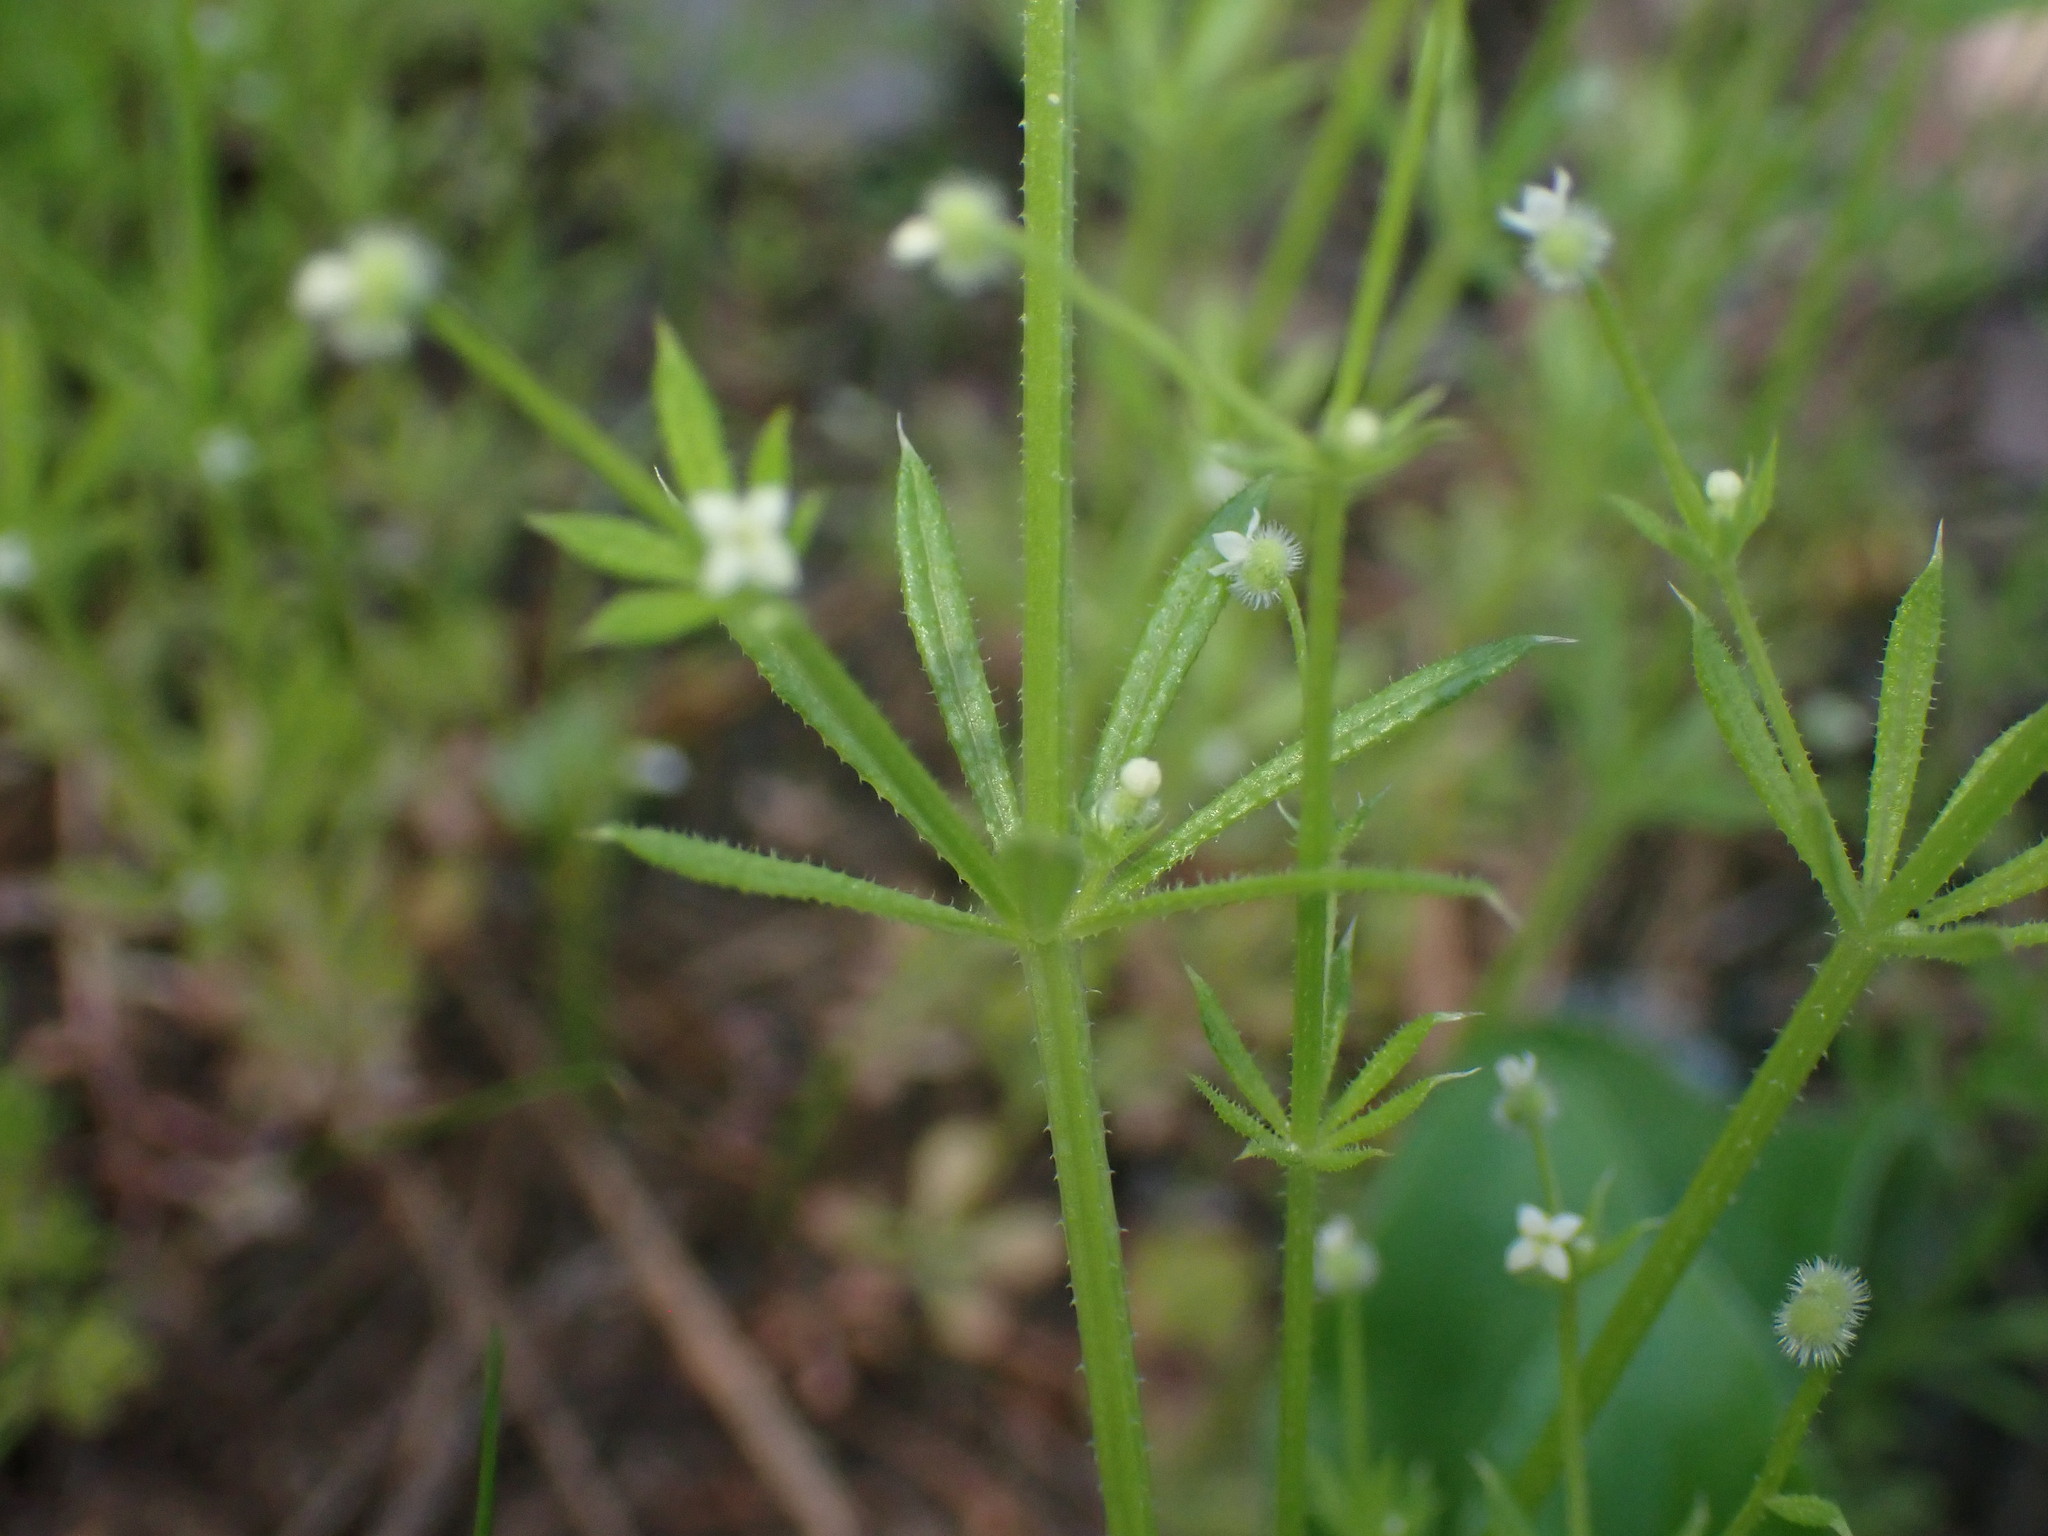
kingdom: Plantae
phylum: Tracheophyta
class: Magnoliopsida
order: Gentianales
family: Rubiaceae
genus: Galium
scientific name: Galium aparine
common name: Cleavers
